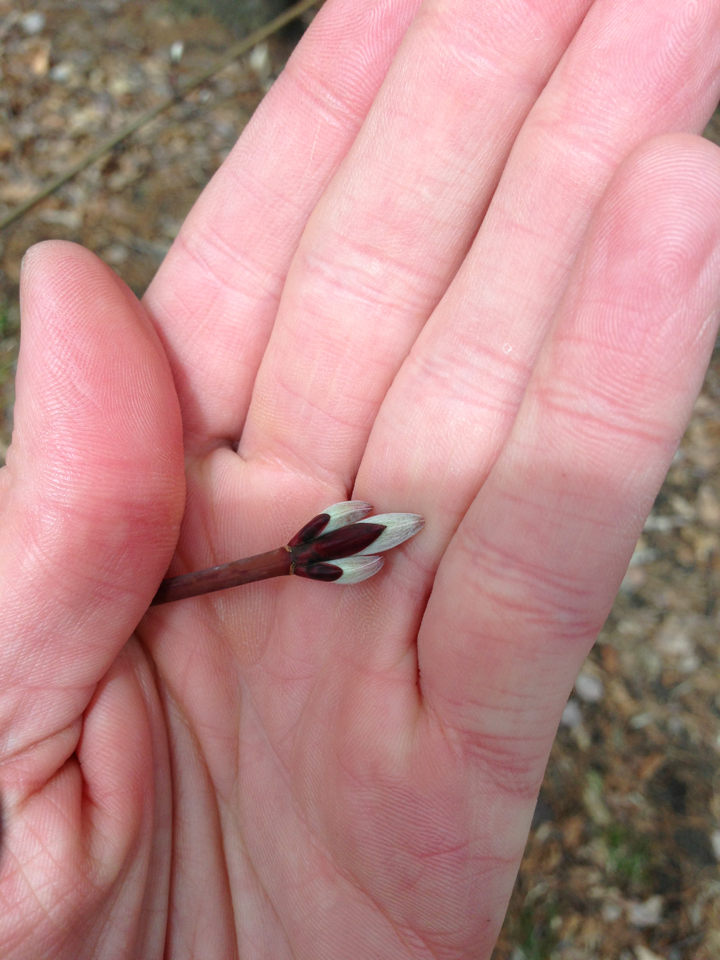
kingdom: Plantae
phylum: Tracheophyta
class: Magnoliopsida
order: Sapindales
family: Sapindaceae
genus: Acer
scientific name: Acer pensylvanicum
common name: Moosewood
